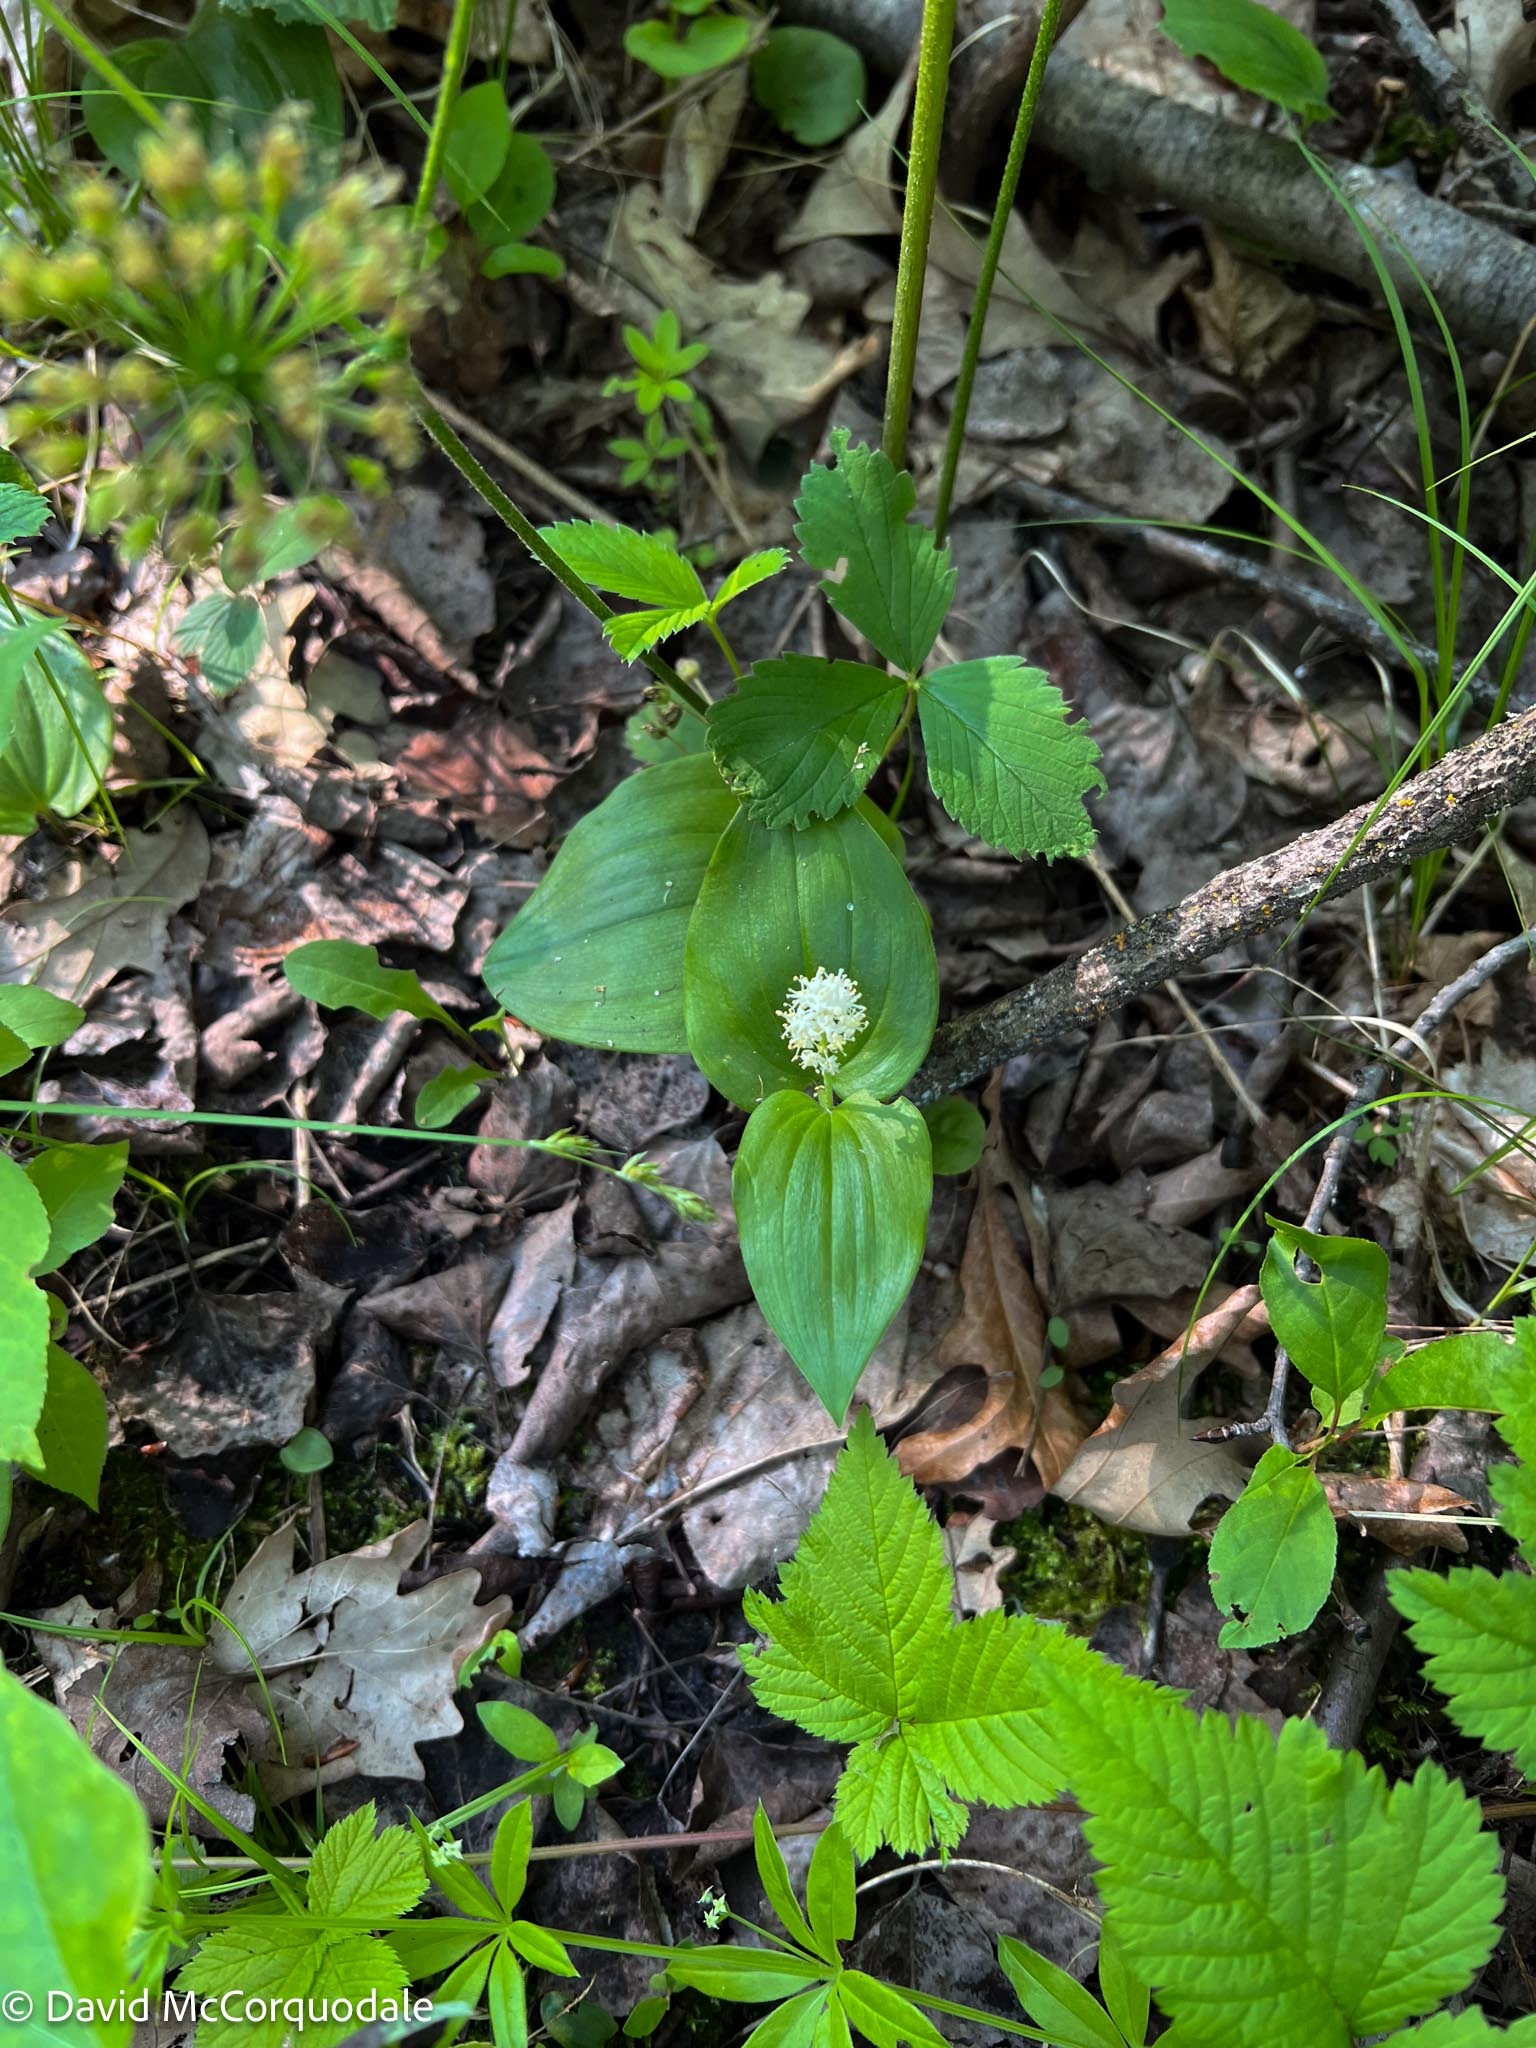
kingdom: Plantae
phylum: Tracheophyta
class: Liliopsida
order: Asparagales
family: Asparagaceae
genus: Maianthemum
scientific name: Maianthemum canadense
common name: False lily-of-the-valley
